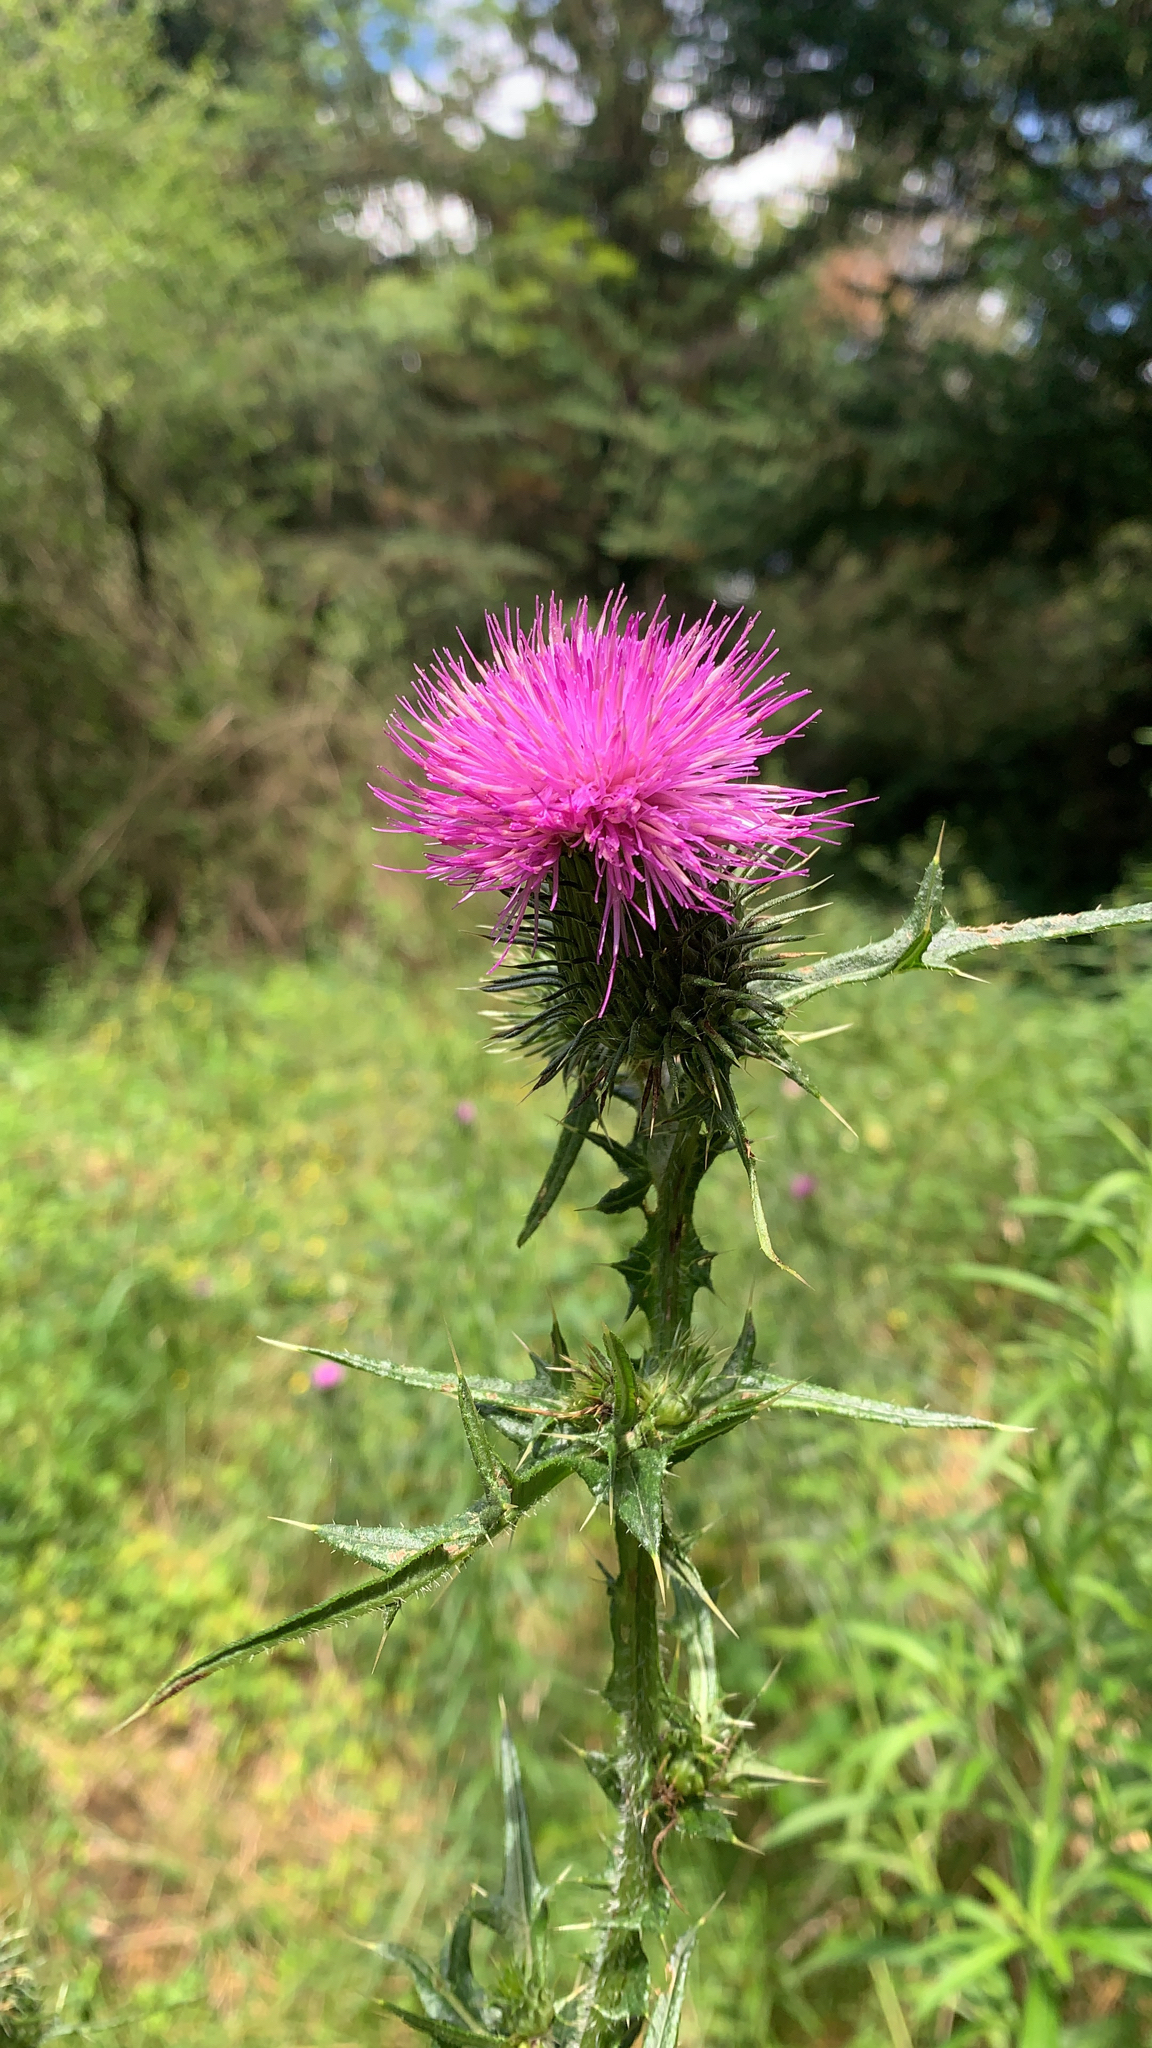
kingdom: Plantae
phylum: Tracheophyta
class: Magnoliopsida
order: Asterales
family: Asteraceae
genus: Cirsium
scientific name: Cirsium vulgare
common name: Bull thistle
